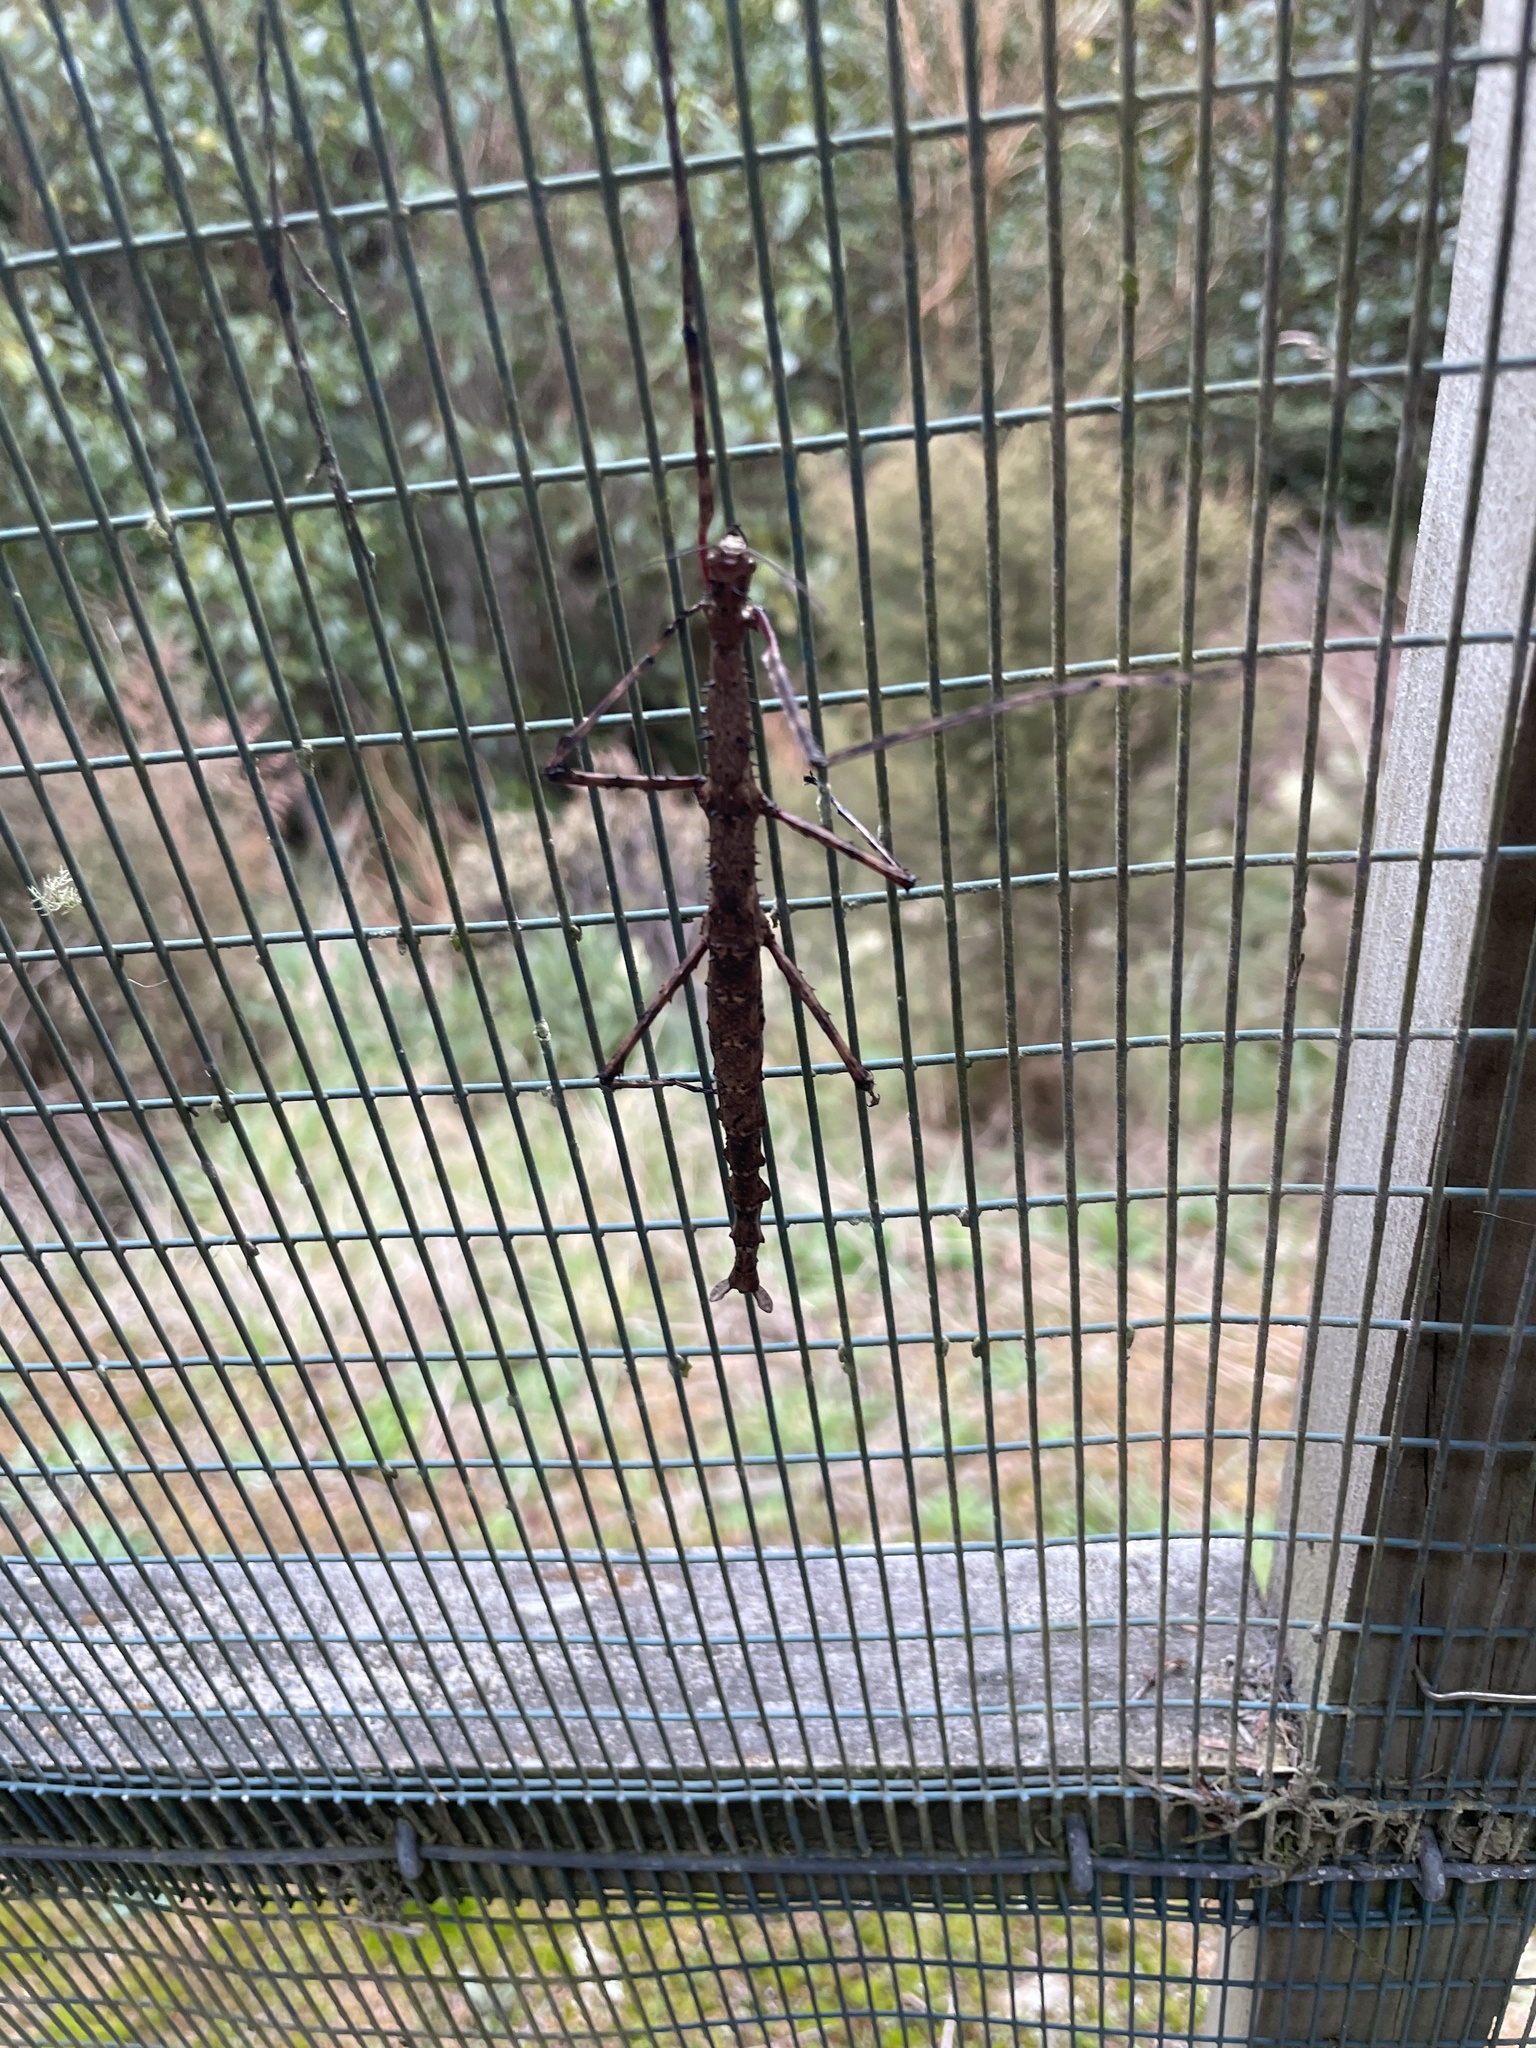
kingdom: Animalia
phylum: Arthropoda
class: Insecta
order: Phasmida
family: Phasmatidae
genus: Acanthoxyla
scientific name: Acanthoxyla prasina
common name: Black-spined stick insect
